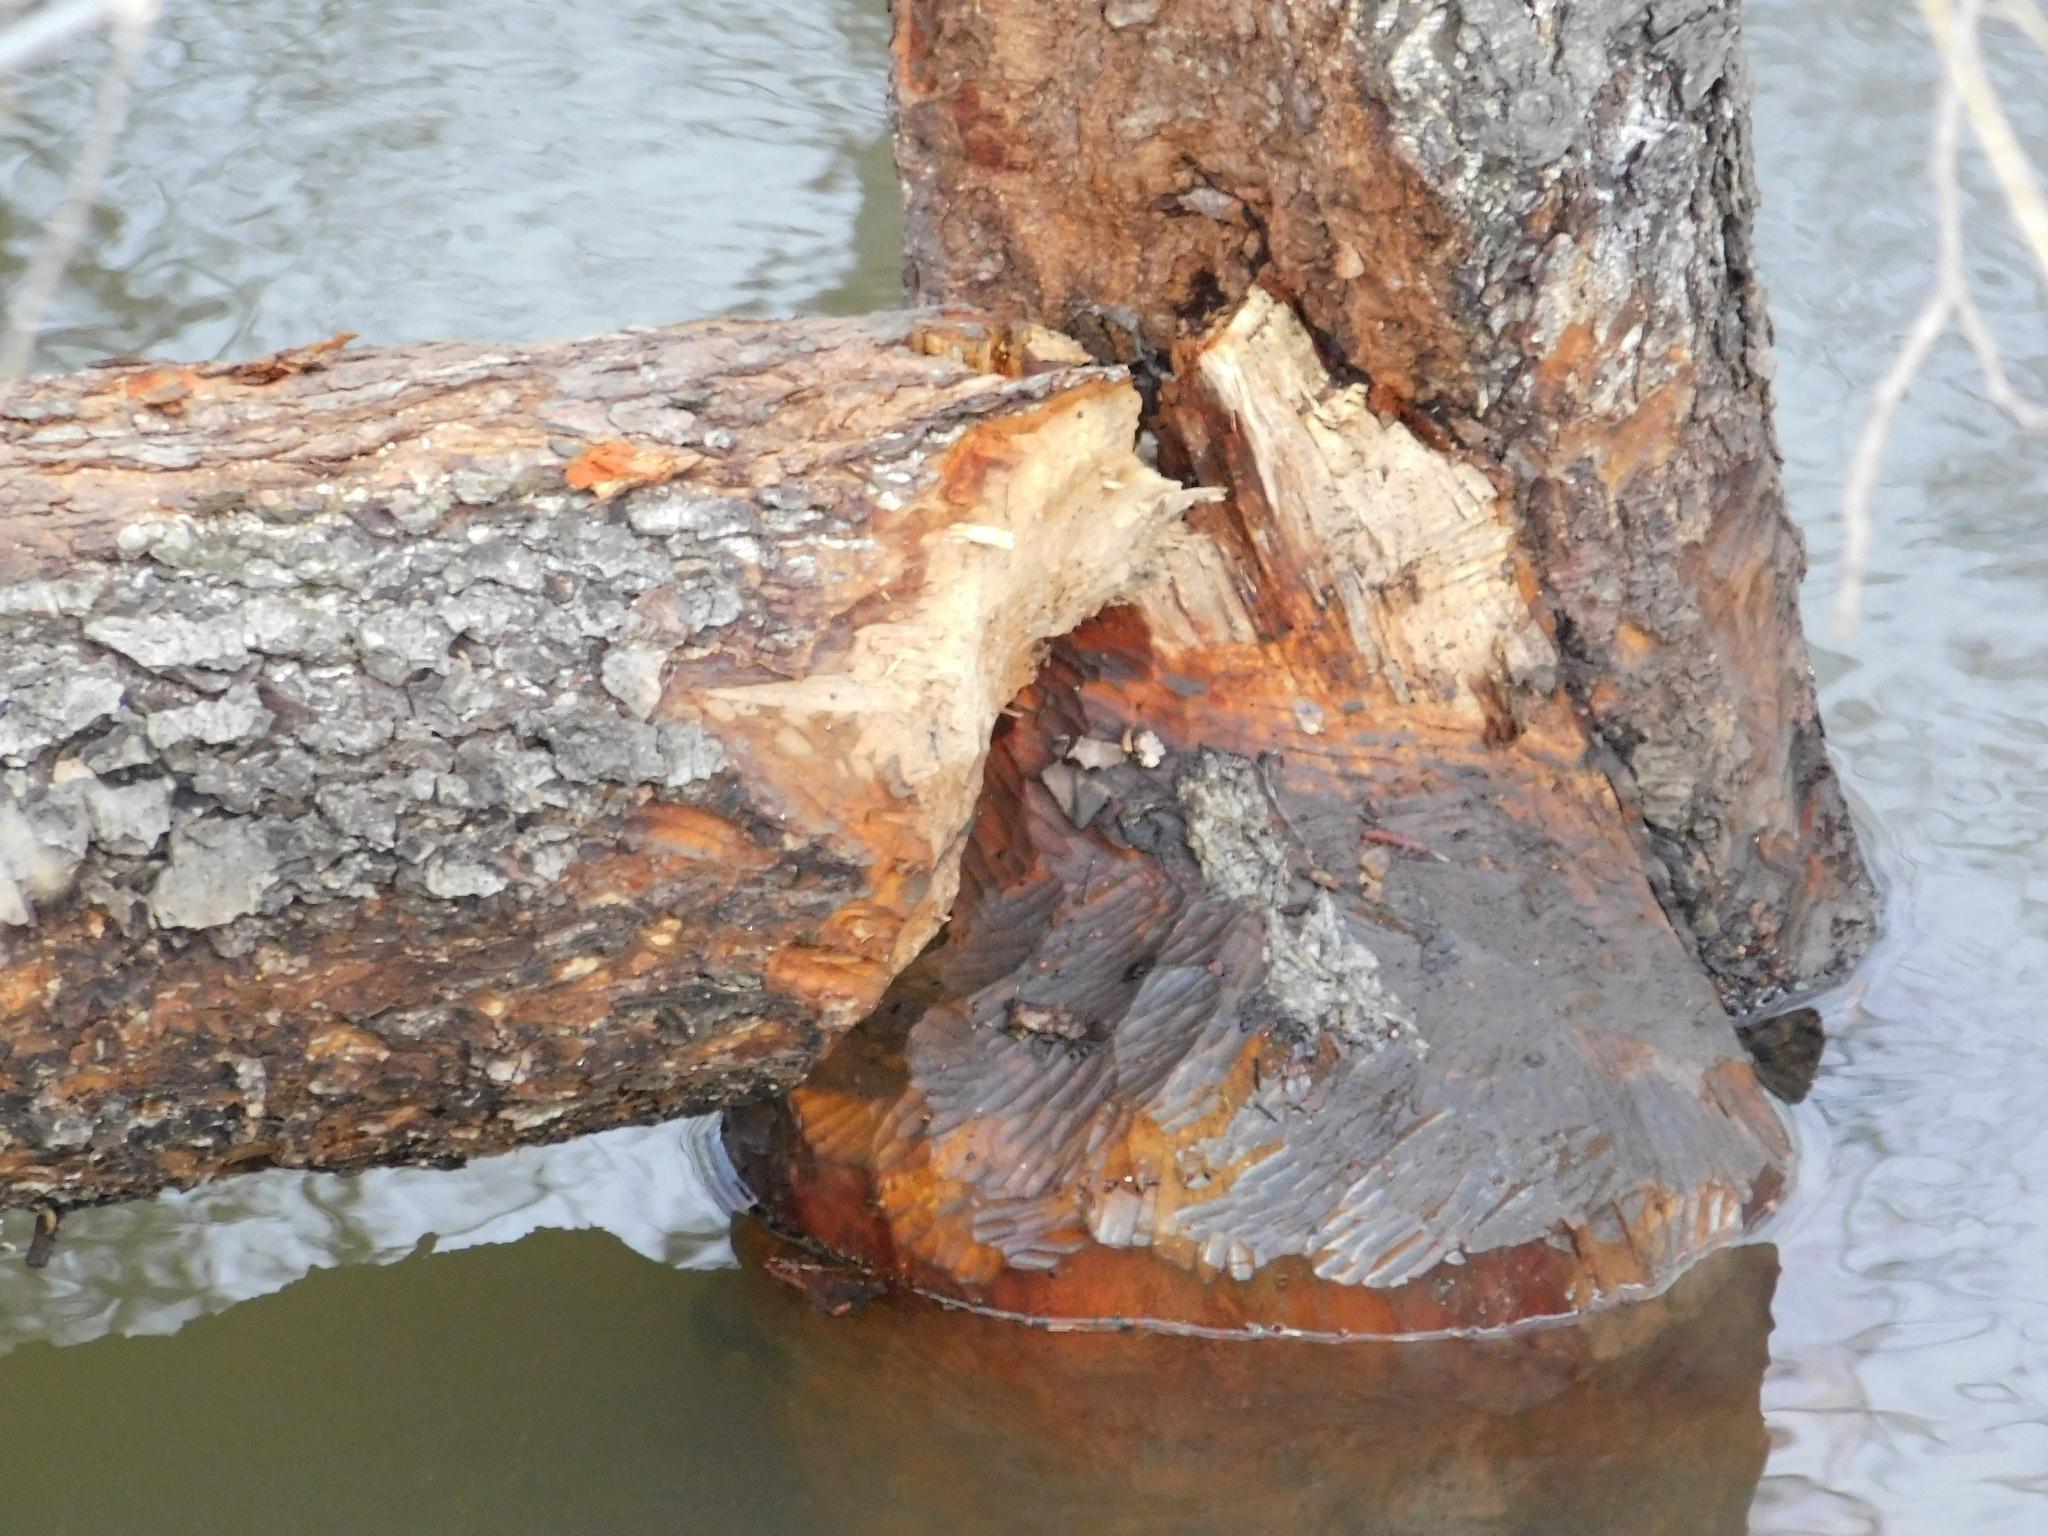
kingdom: Animalia
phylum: Chordata
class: Mammalia
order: Rodentia
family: Castoridae
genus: Castor
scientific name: Castor fiber
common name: Eurasian beaver
